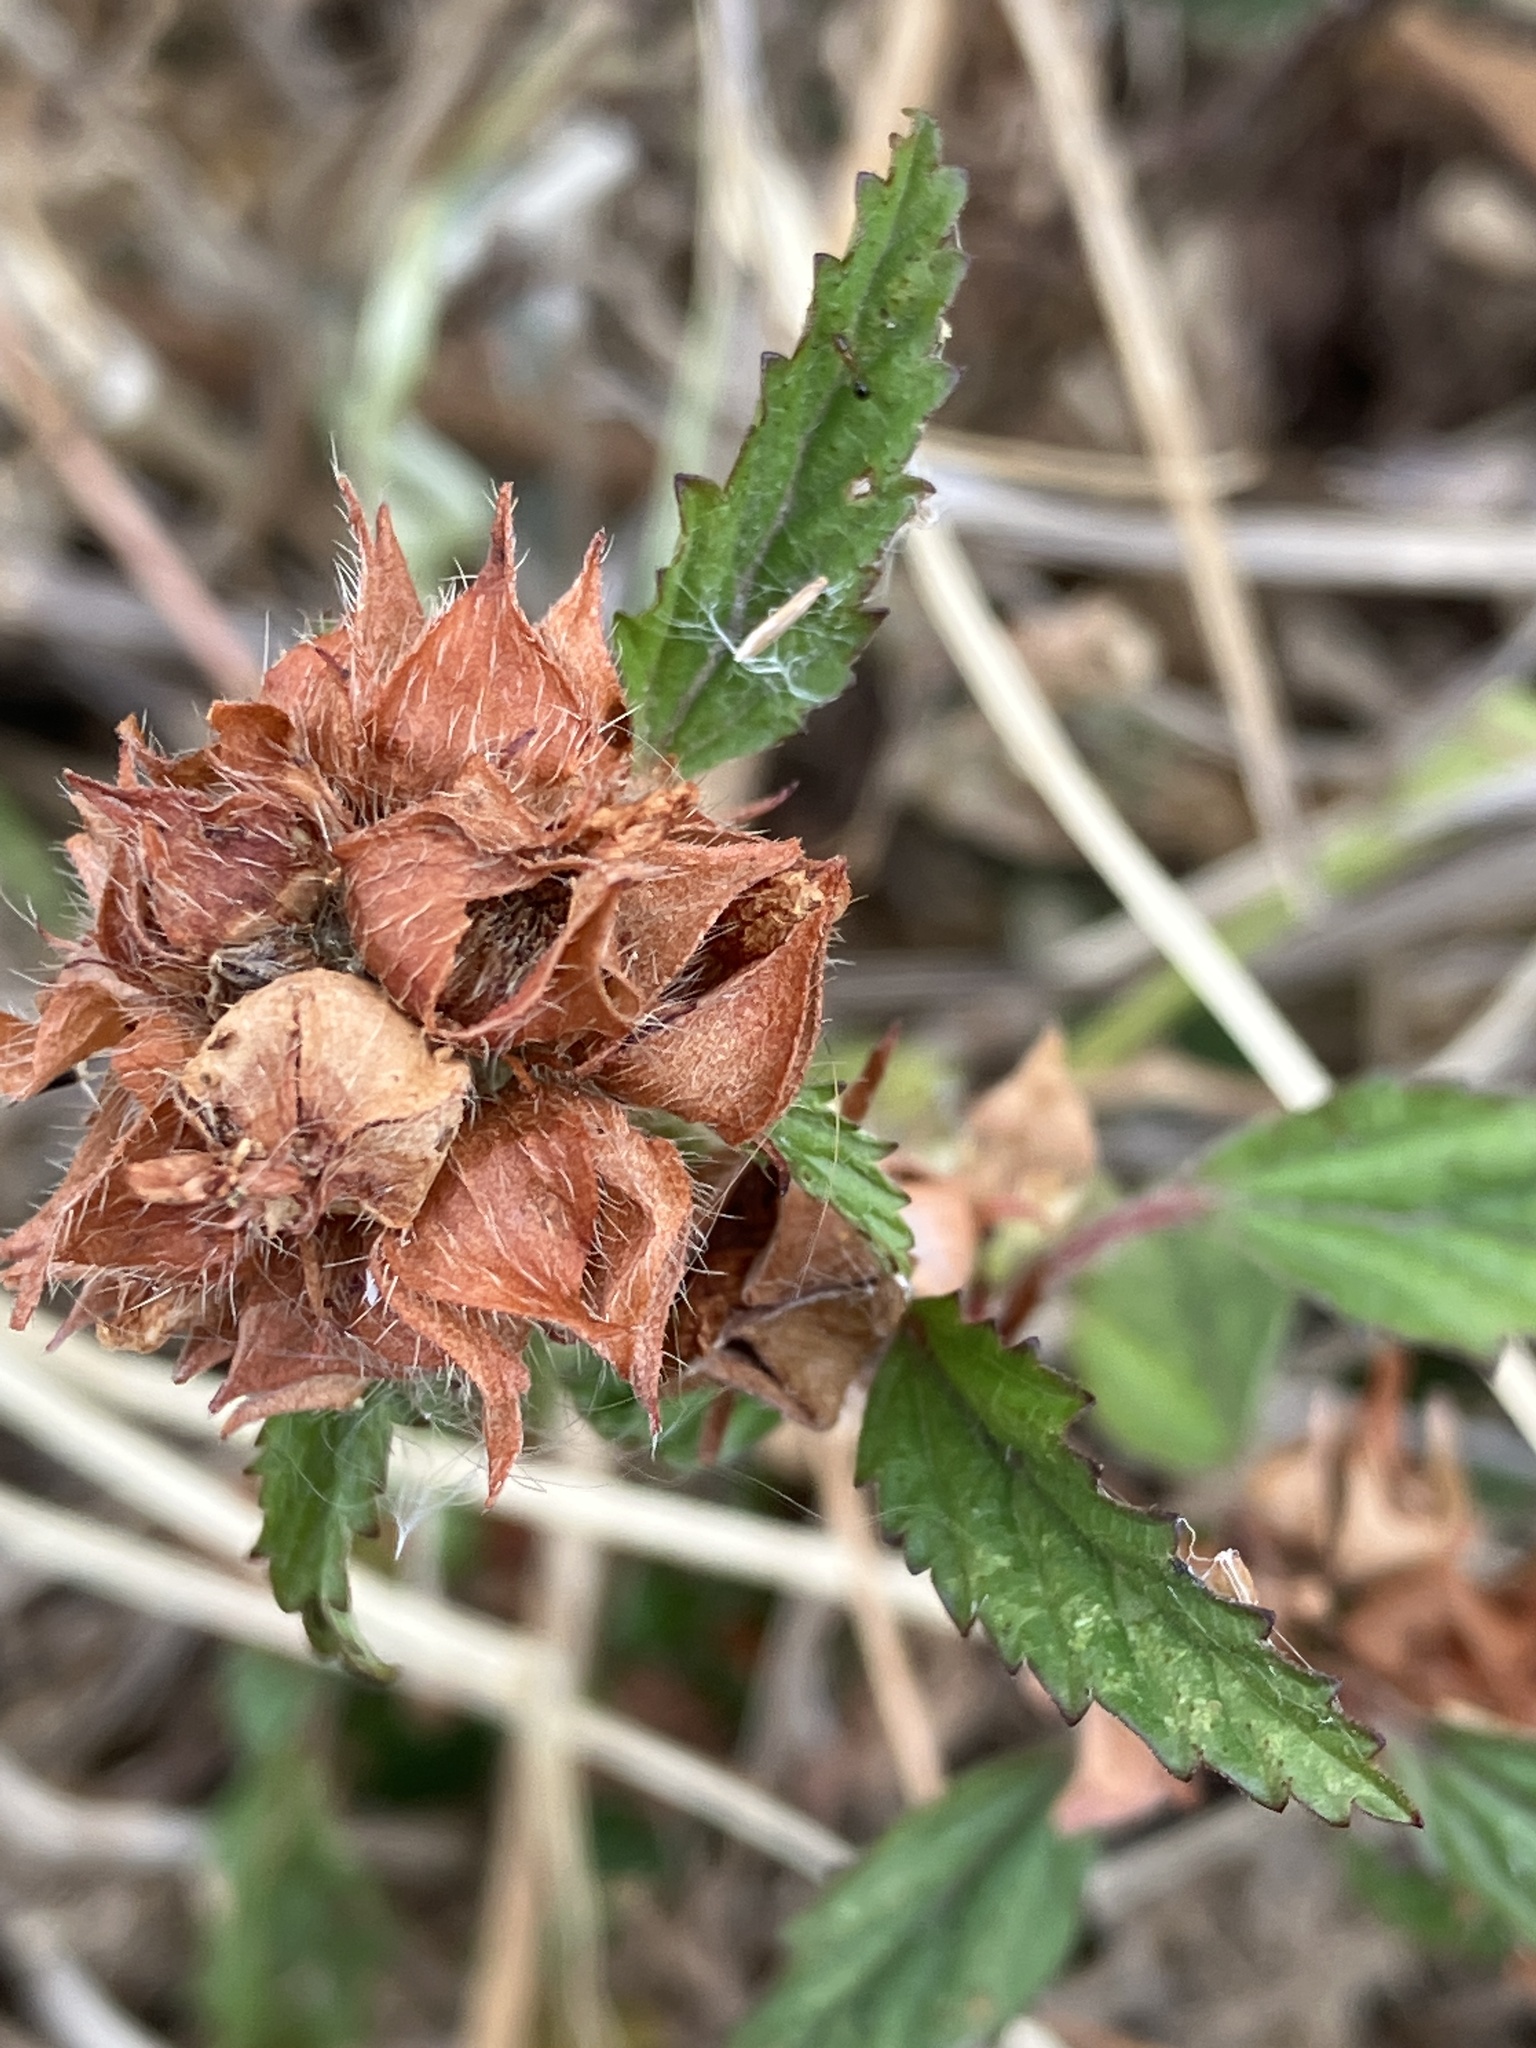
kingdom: Plantae
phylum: Tracheophyta
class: Magnoliopsida
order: Malvales
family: Malvaceae
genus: Malvastrum
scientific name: Malvastrum coromandelianum
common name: Threelobe false mallow
